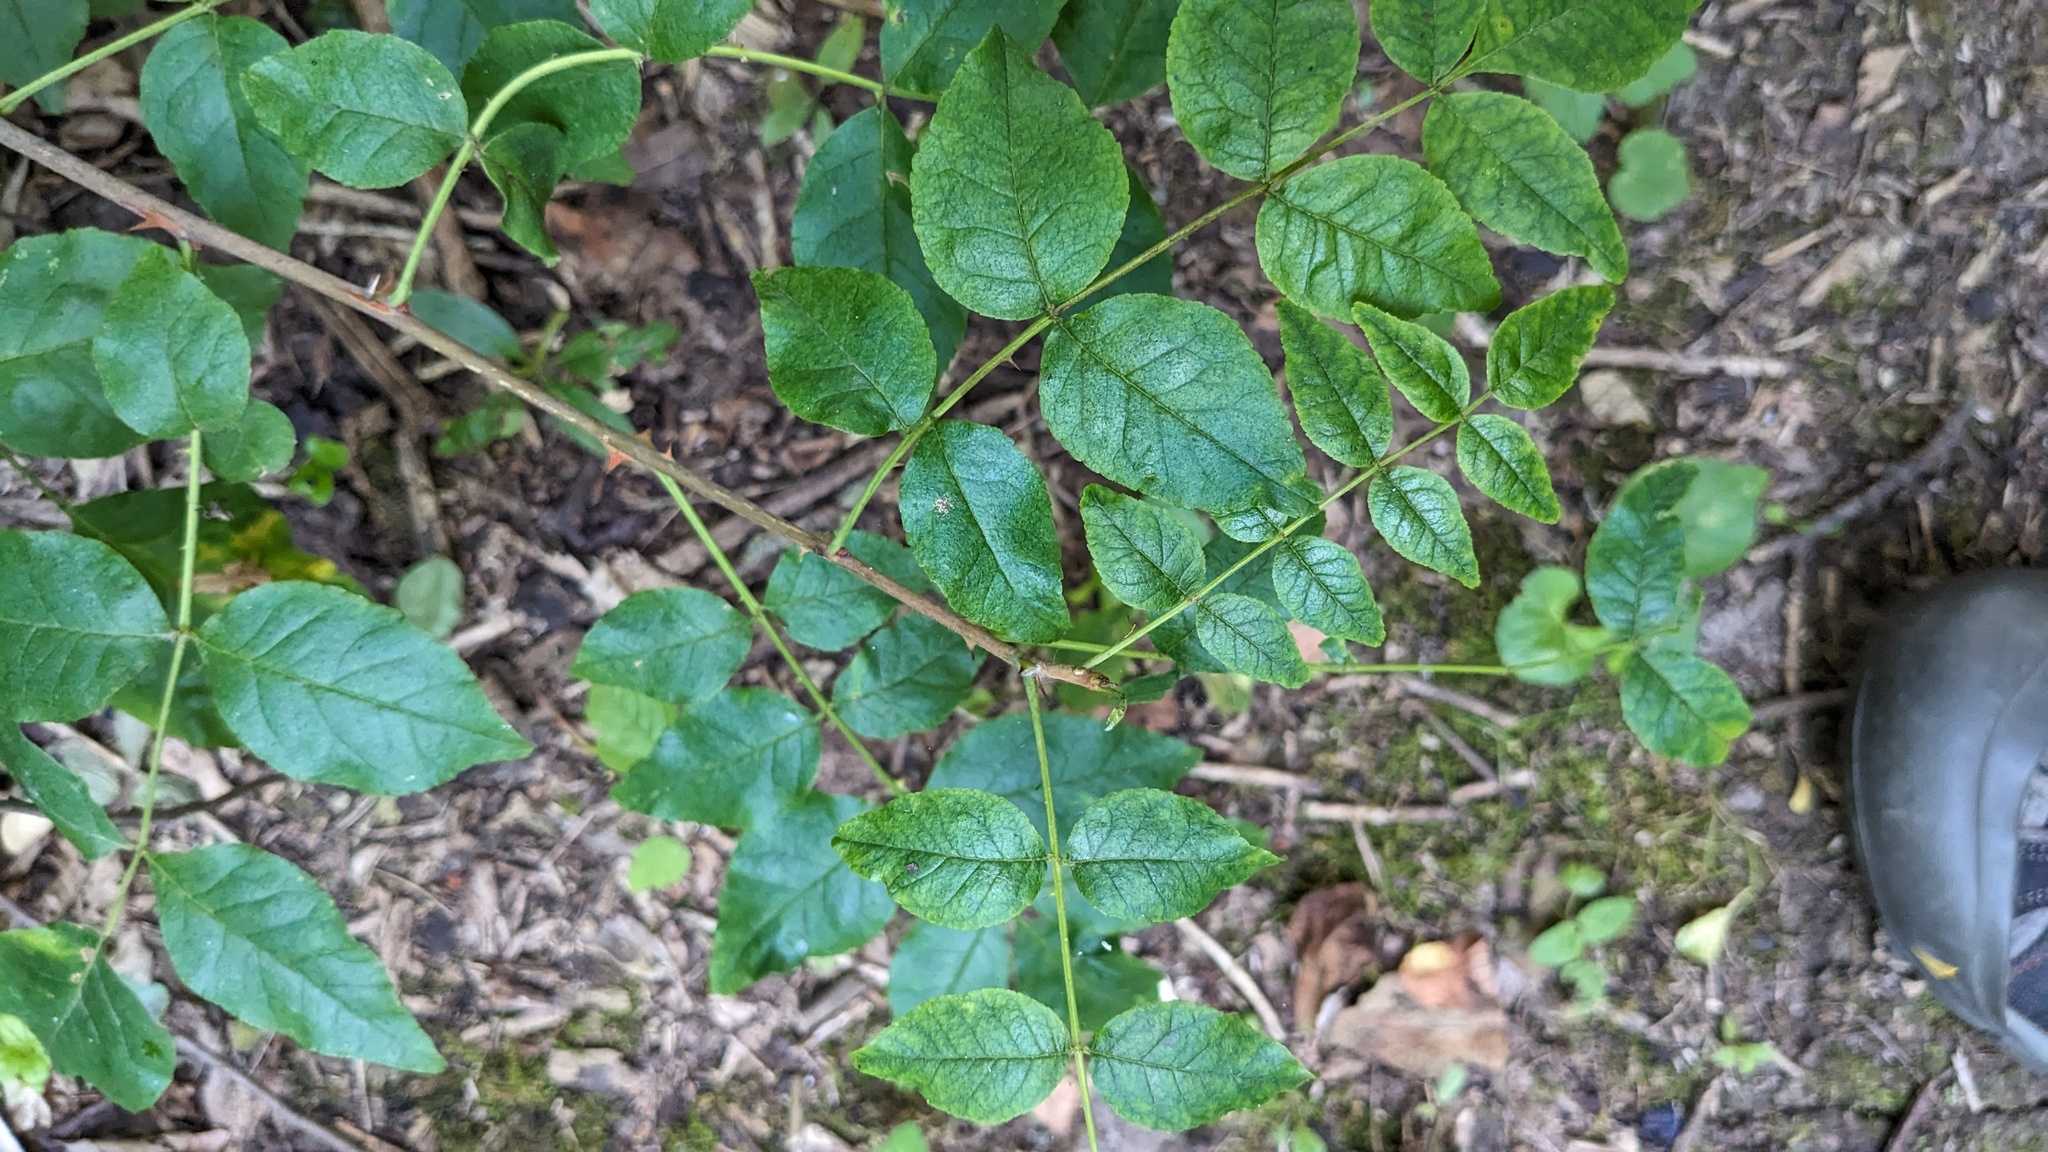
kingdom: Plantae
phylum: Tracheophyta
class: Magnoliopsida
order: Sapindales
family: Rutaceae
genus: Zanthoxylum
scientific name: Zanthoxylum americanum
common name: Northern prickly-ash
